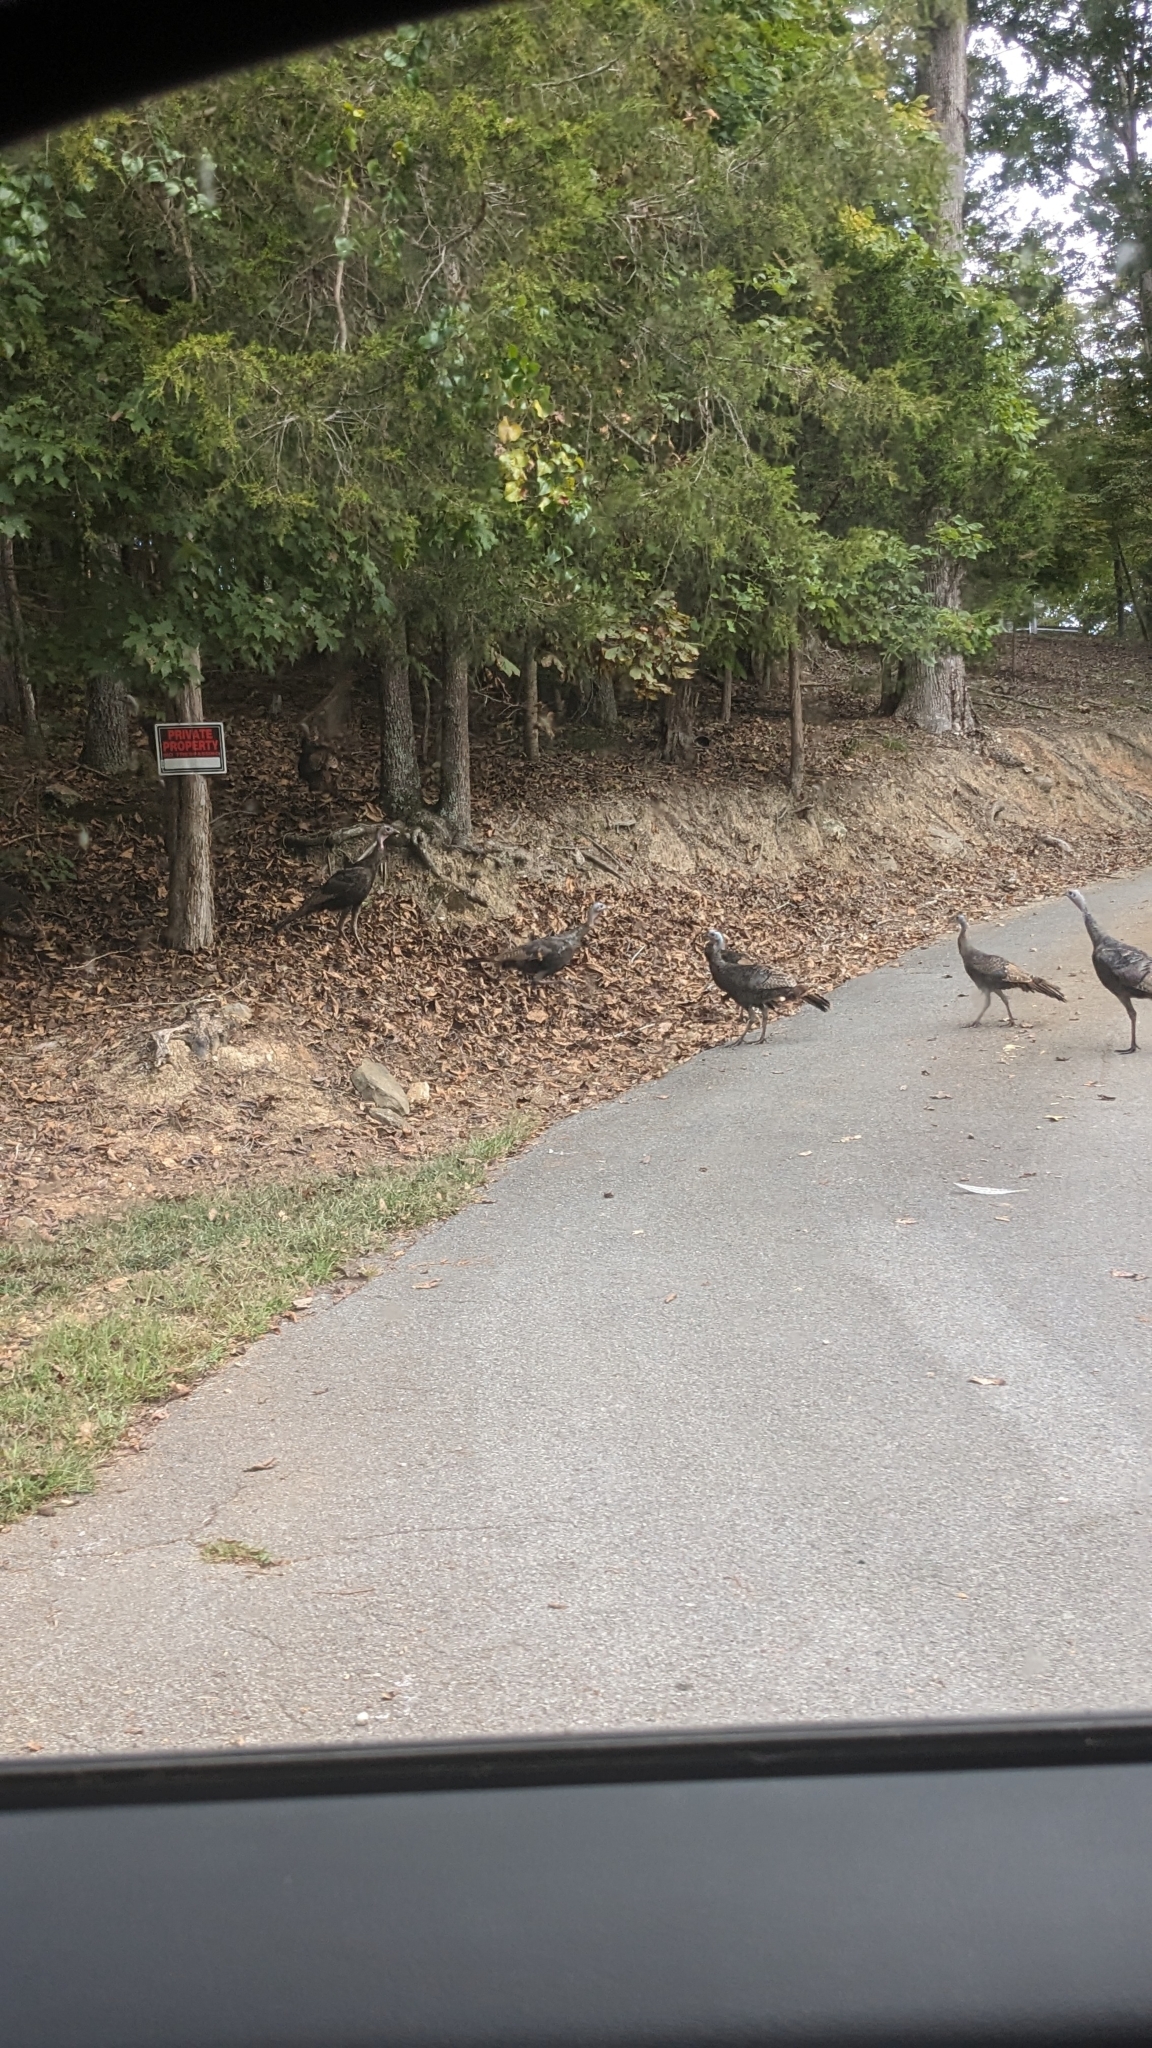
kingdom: Animalia
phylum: Chordata
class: Aves
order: Galliformes
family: Phasianidae
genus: Meleagris
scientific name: Meleagris gallopavo
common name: Wild turkey
